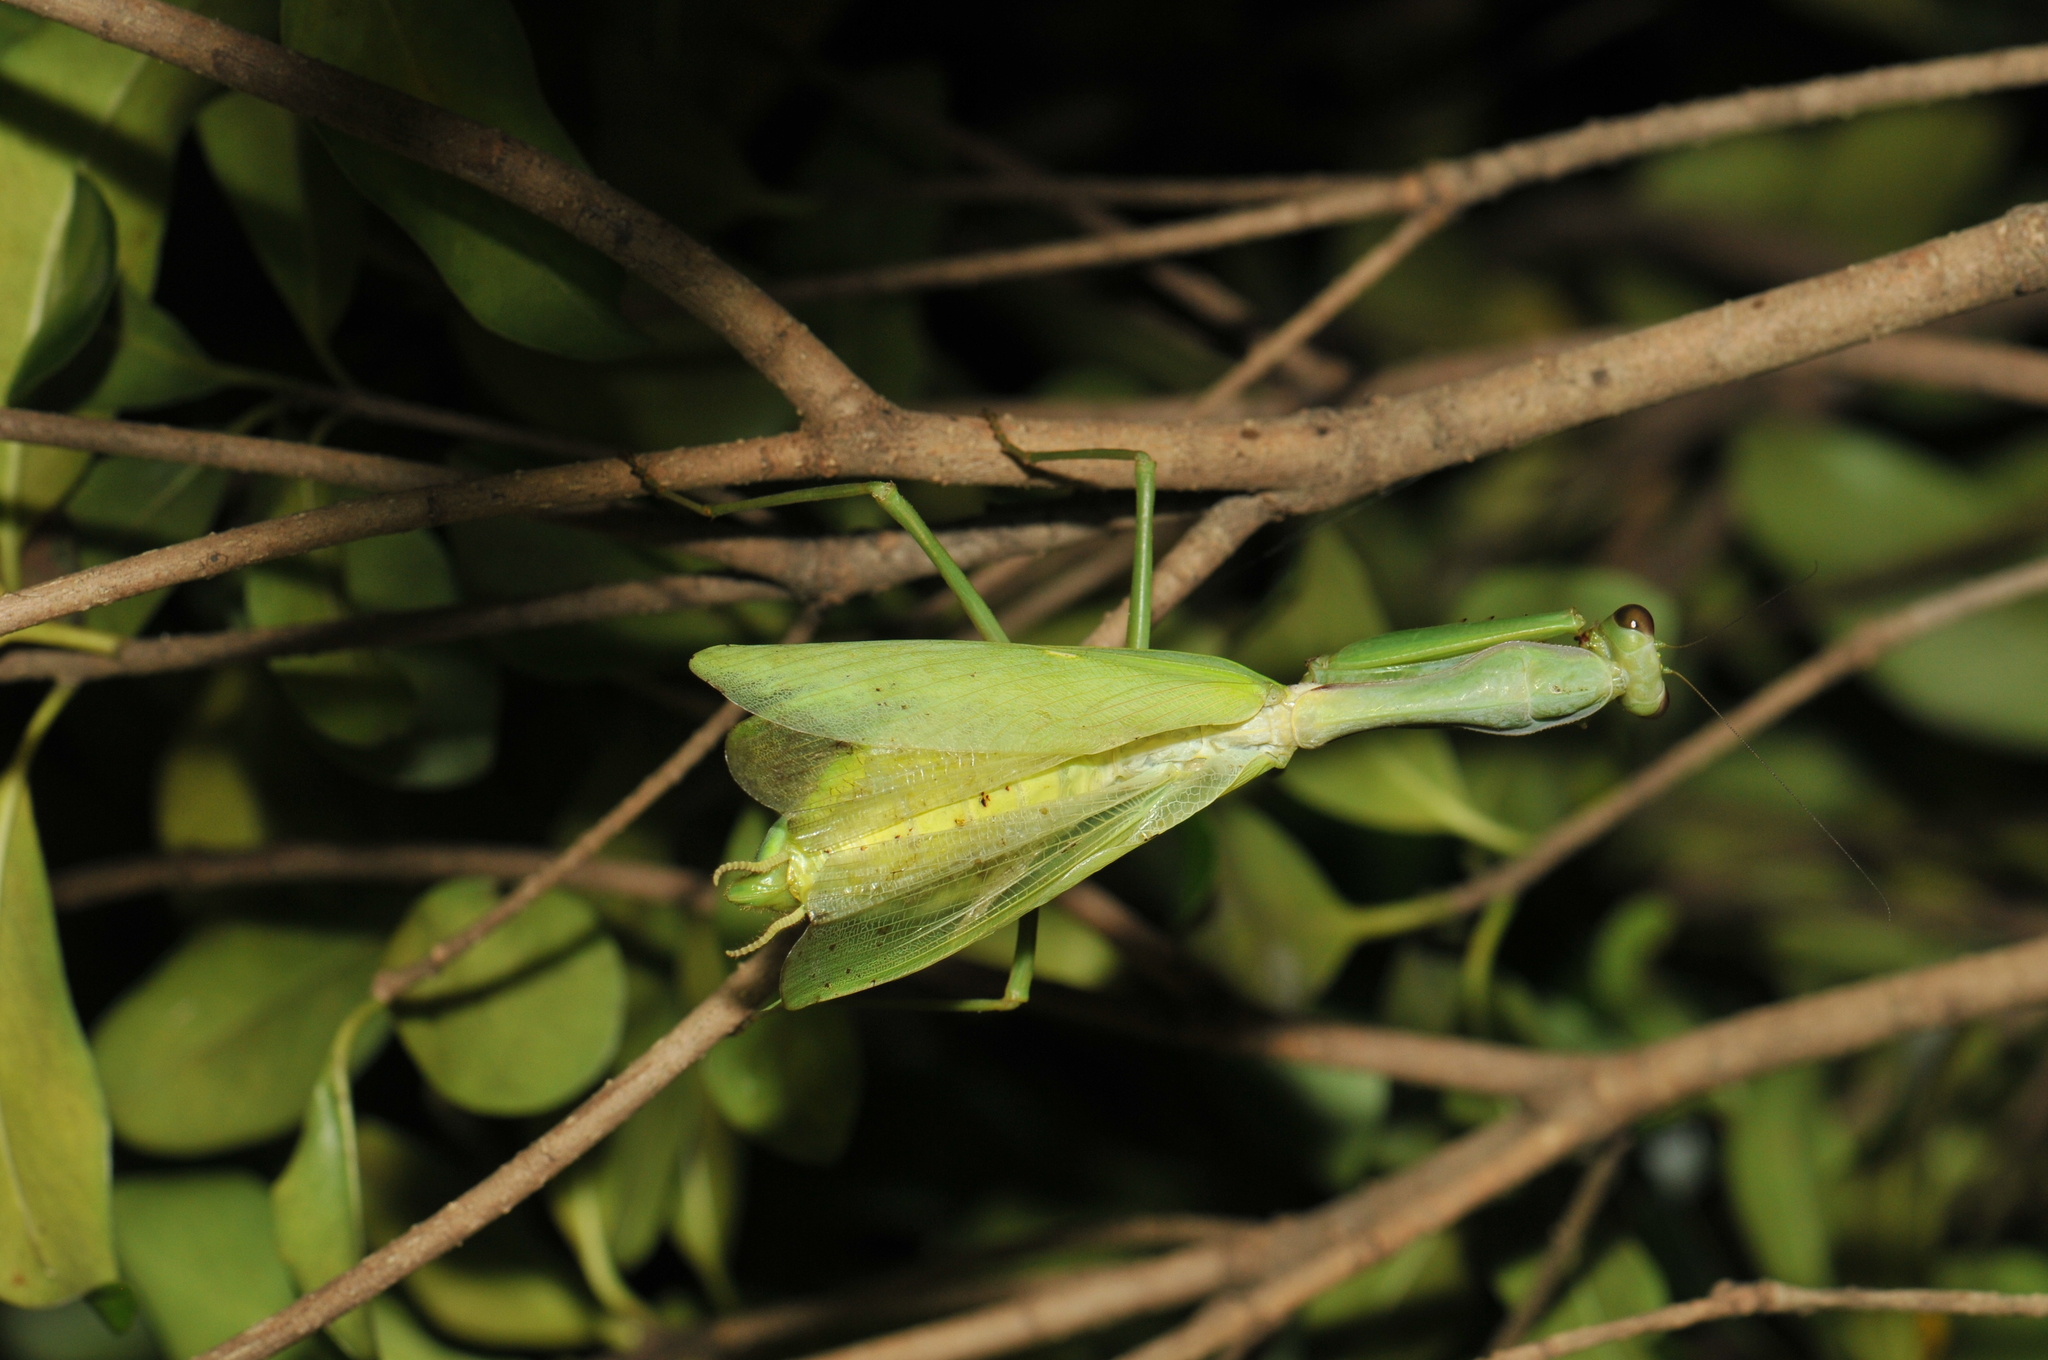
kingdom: Animalia
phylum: Arthropoda
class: Insecta
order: Mantodea
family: Mantidae
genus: Titanodula
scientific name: Titanodula formosana
